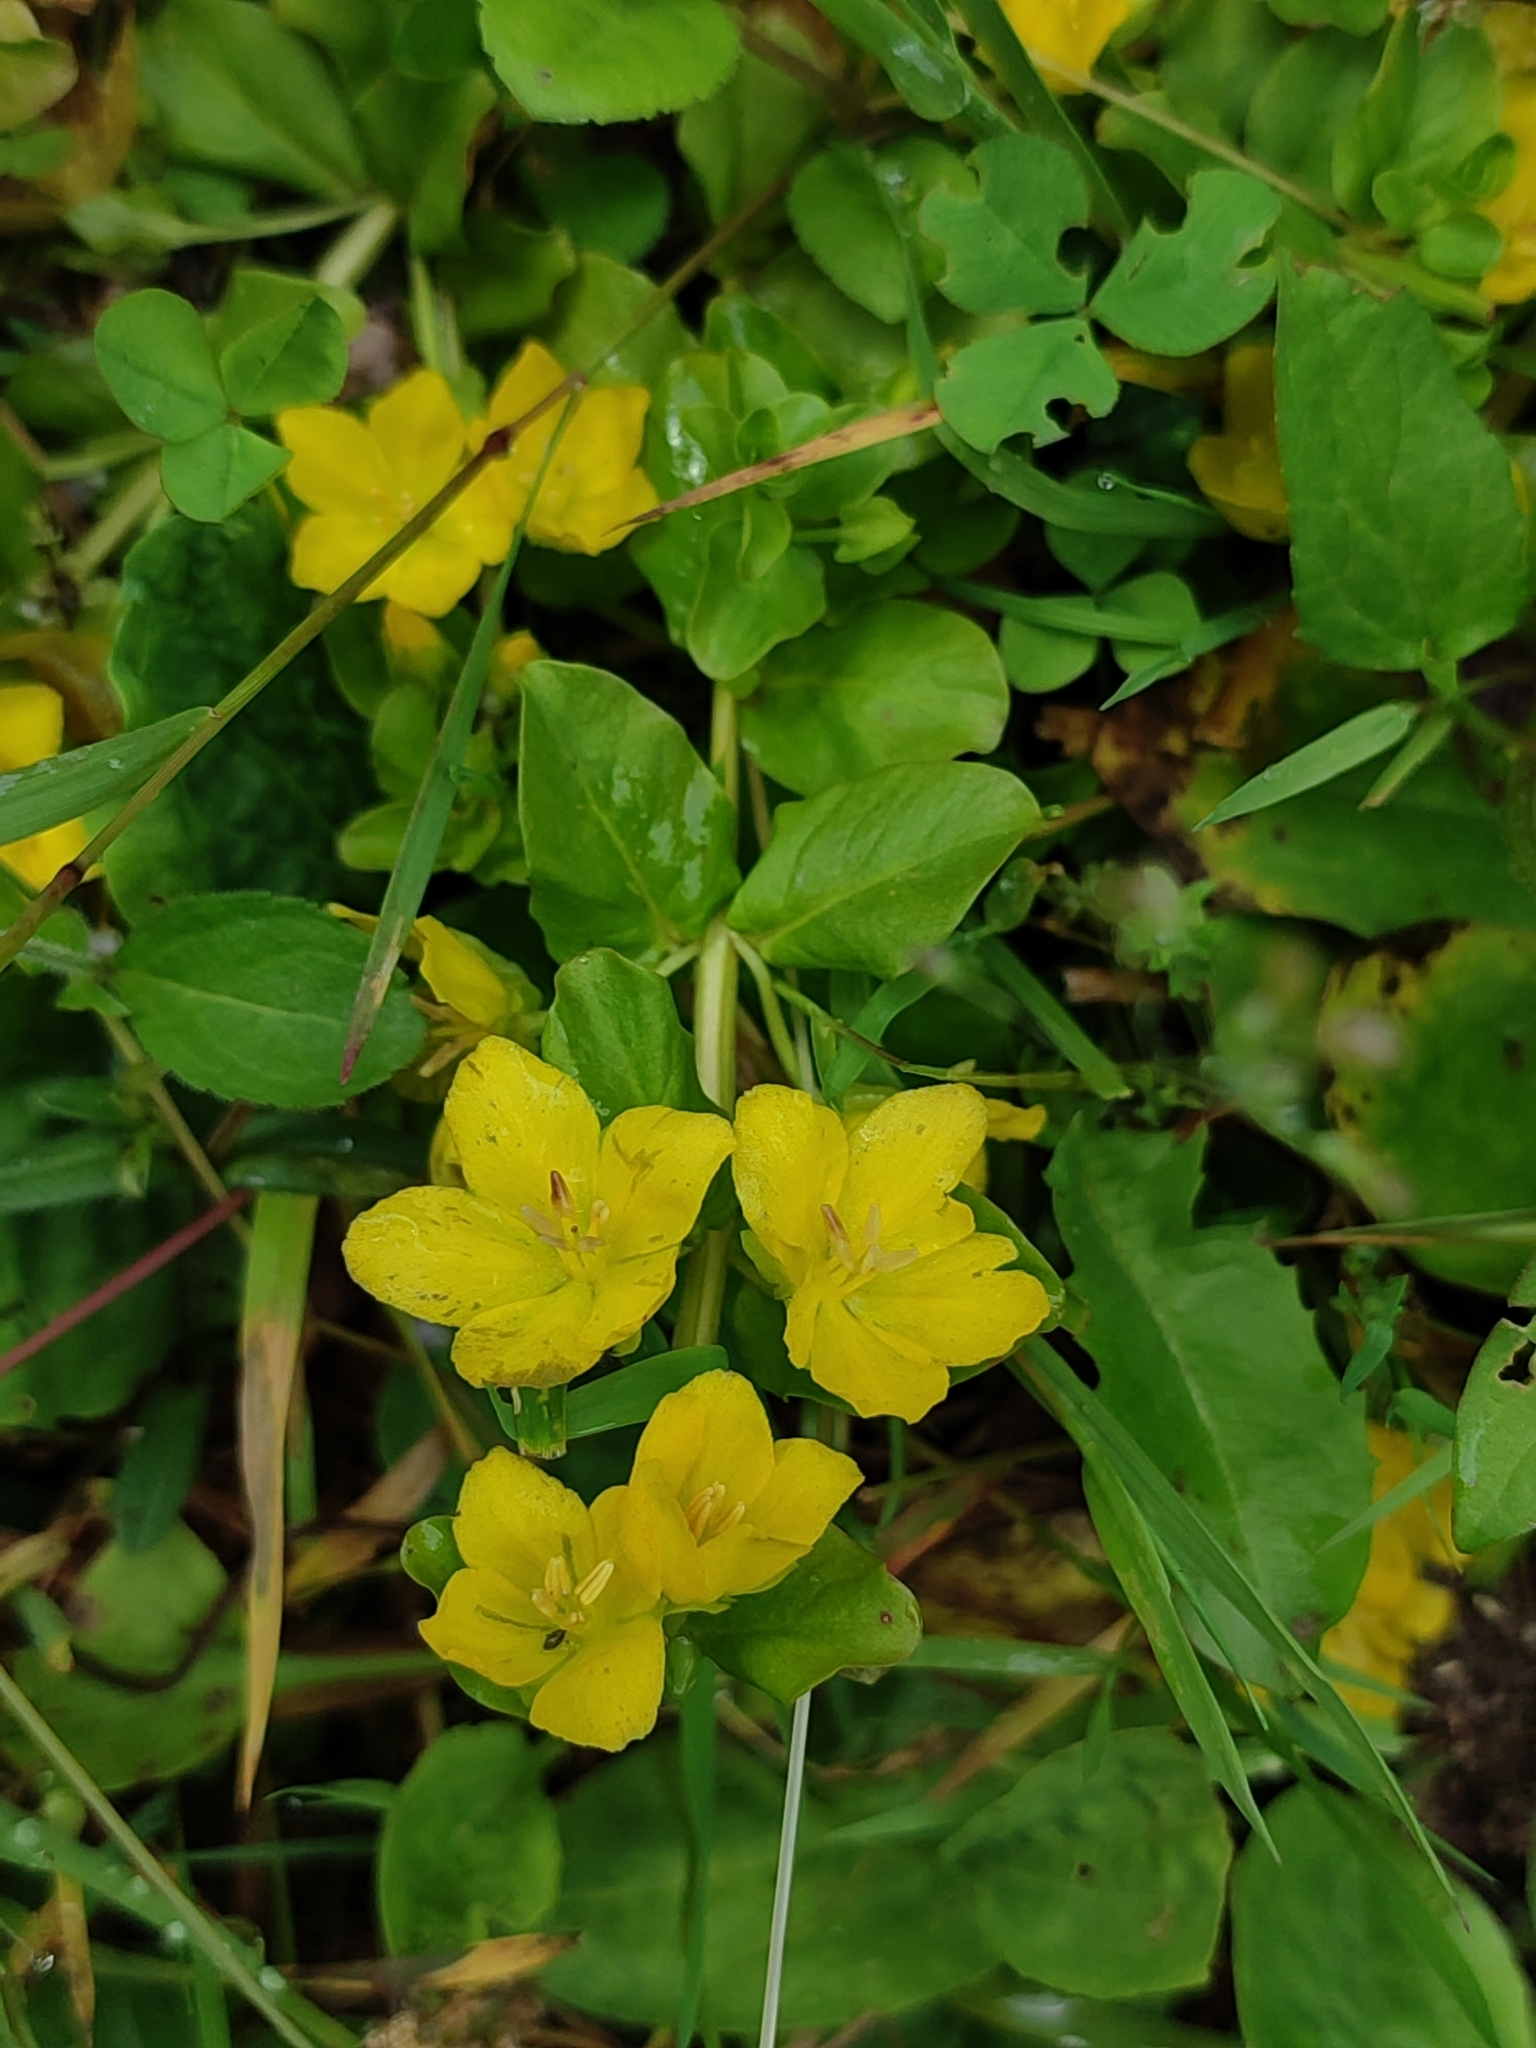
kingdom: Plantae
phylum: Tracheophyta
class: Magnoliopsida
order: Ericales
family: Primulaceae
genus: Lysimachia
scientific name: Lysimachia nummularia
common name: Moneywort
